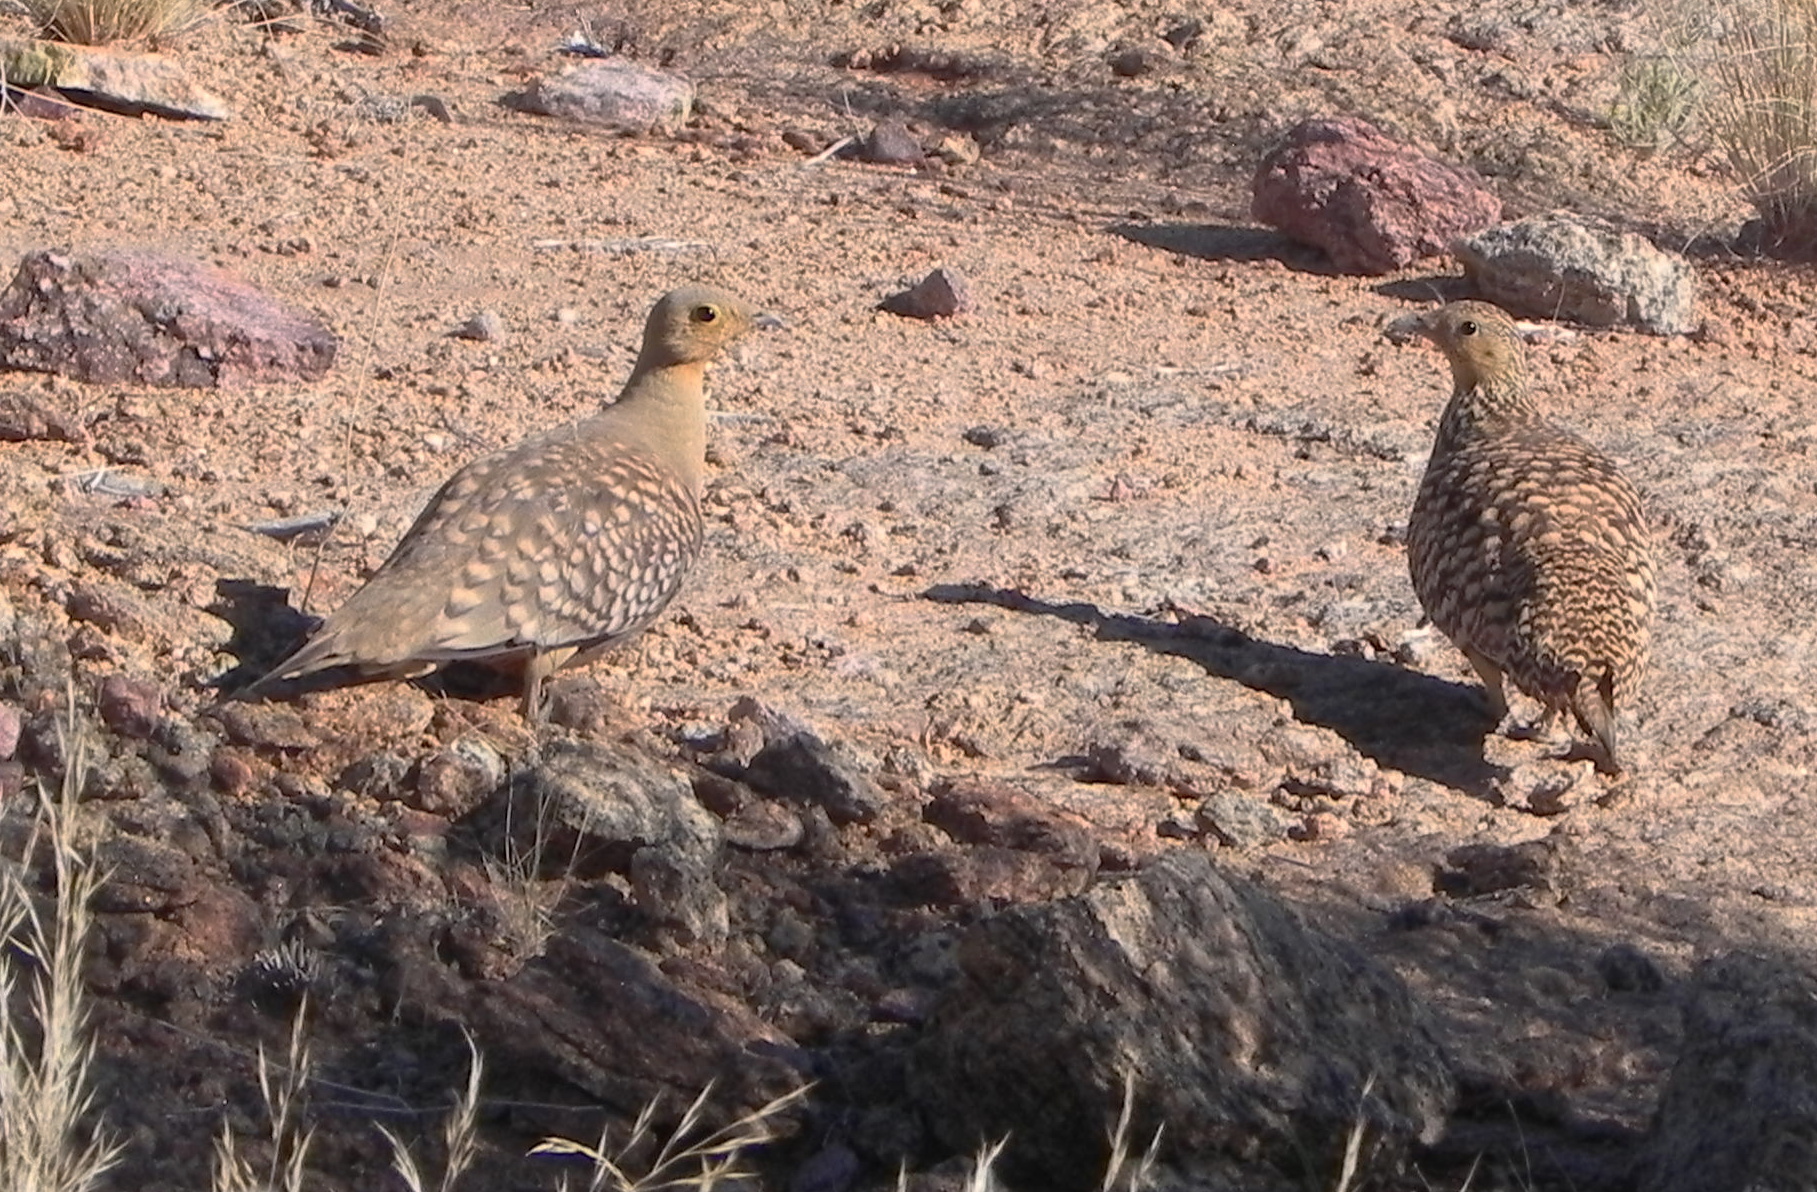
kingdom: Animalia
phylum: Chordata
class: Aves
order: Pteroclidiformes
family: Pteroclididae
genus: Pterocles
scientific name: Pterocles namaqua
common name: Namaqua sandgrouse
